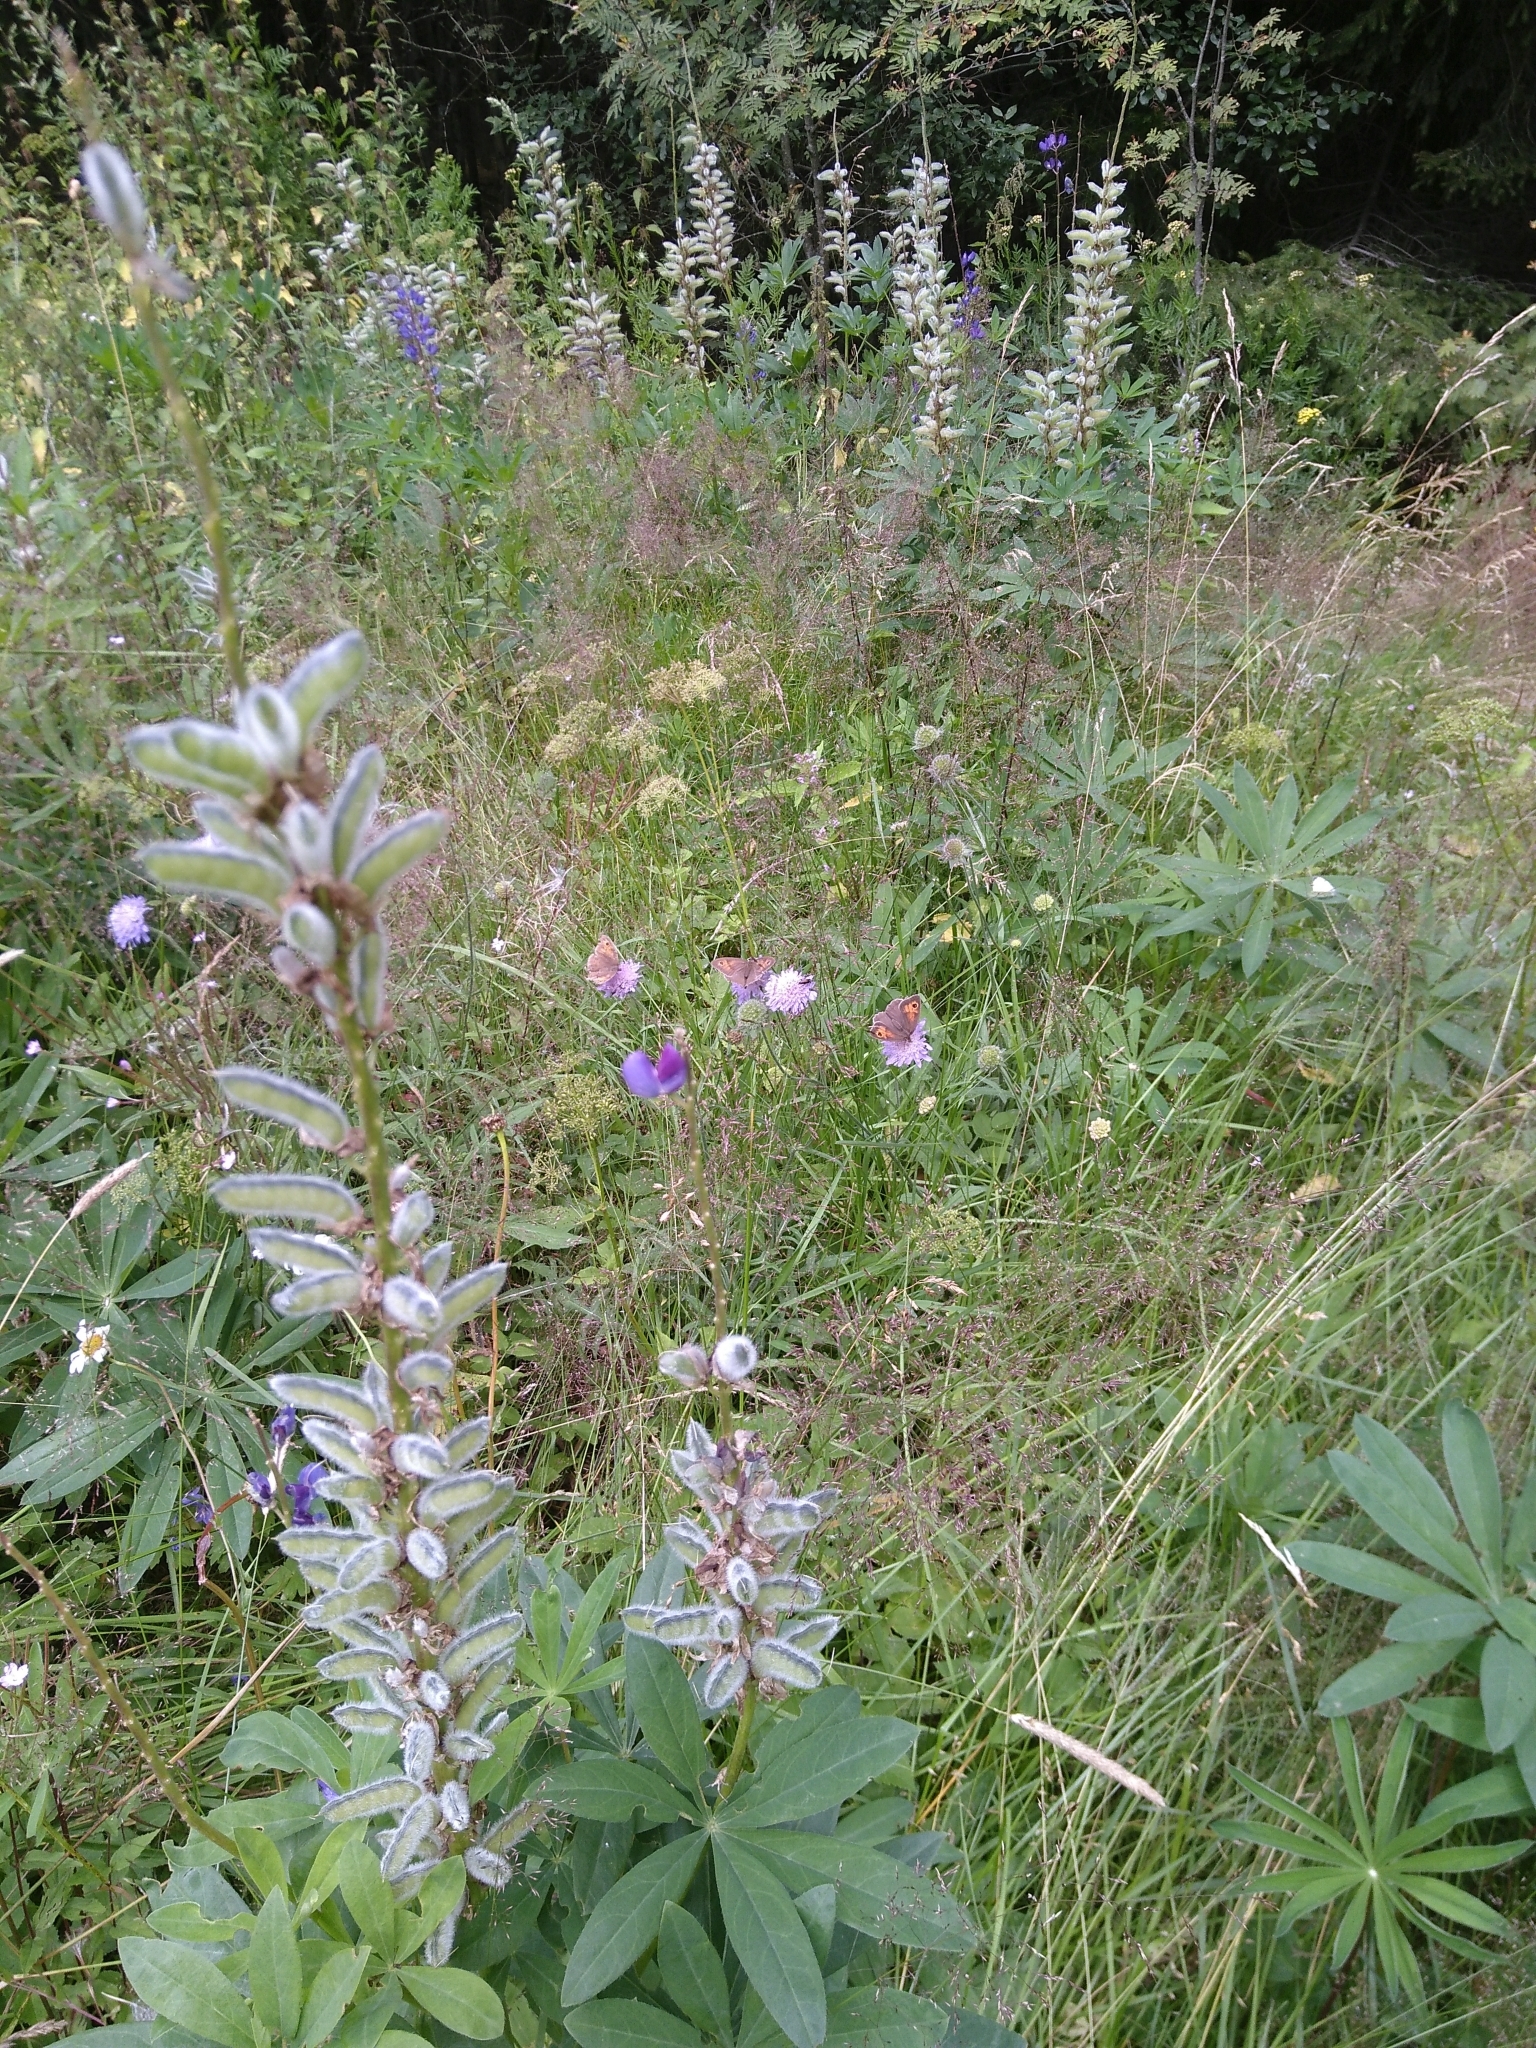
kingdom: Plantae
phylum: Tracheophyta
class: Magnoliopsida
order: Fabales
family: Fabaceae
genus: Lupinus
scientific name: Lupinus polyphyllus
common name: Garden lupin
